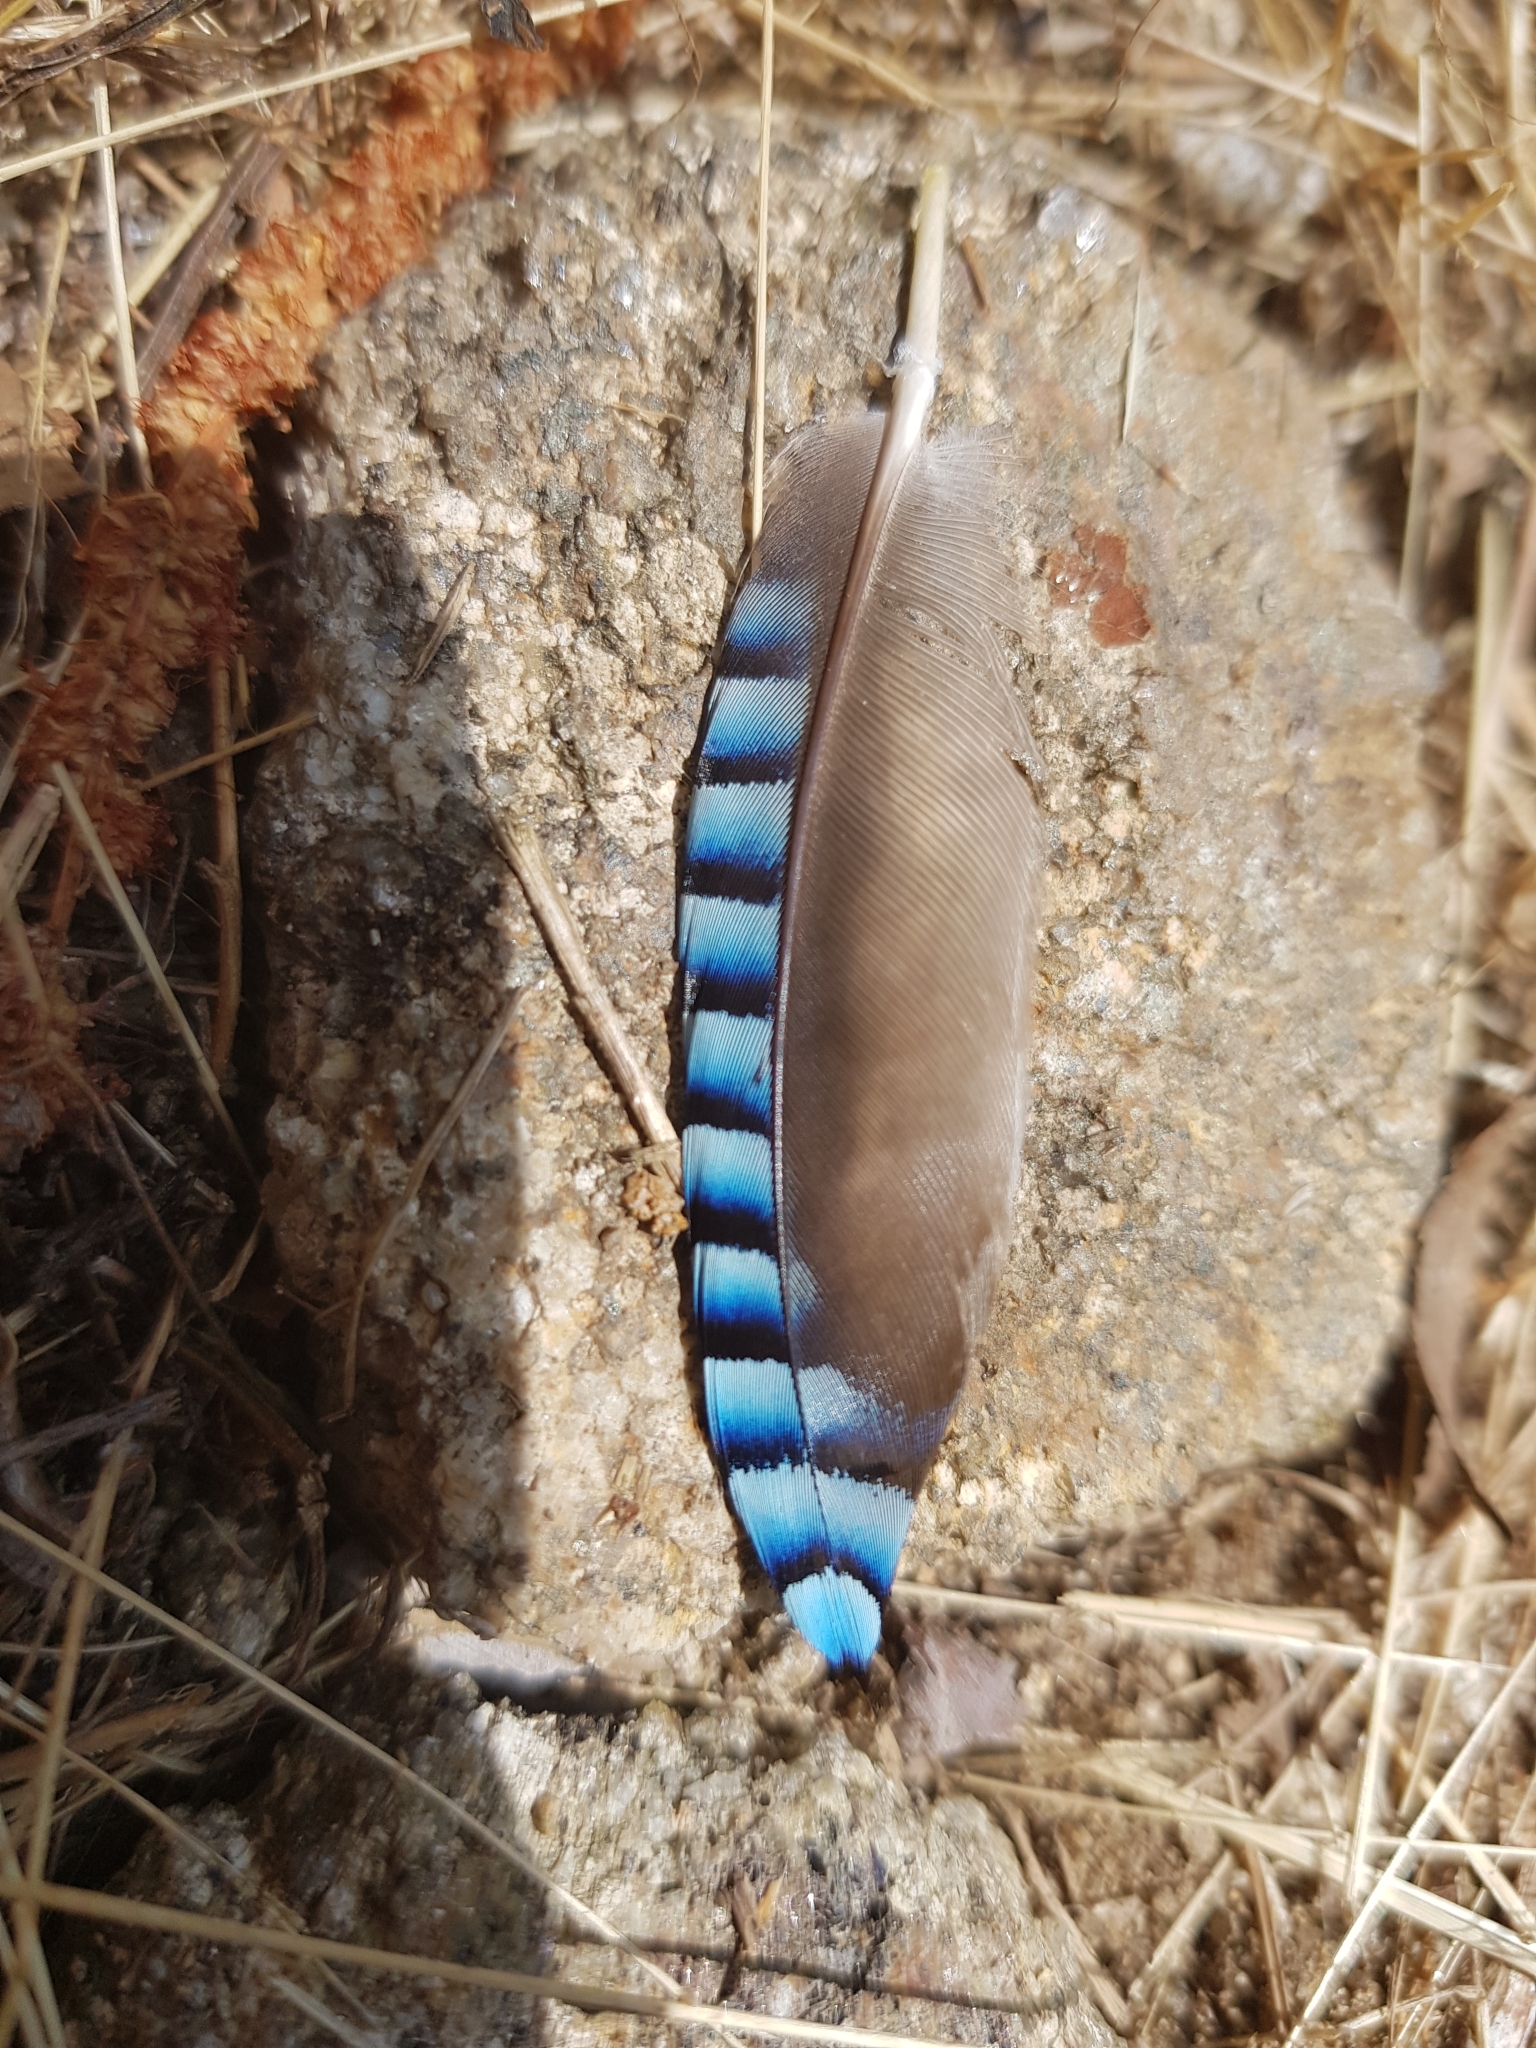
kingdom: Animalia
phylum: Chordata
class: Aves
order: Passeriformes
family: Corvidae
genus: Garrulus
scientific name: Garrulus glandarius
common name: Eurasian jay
